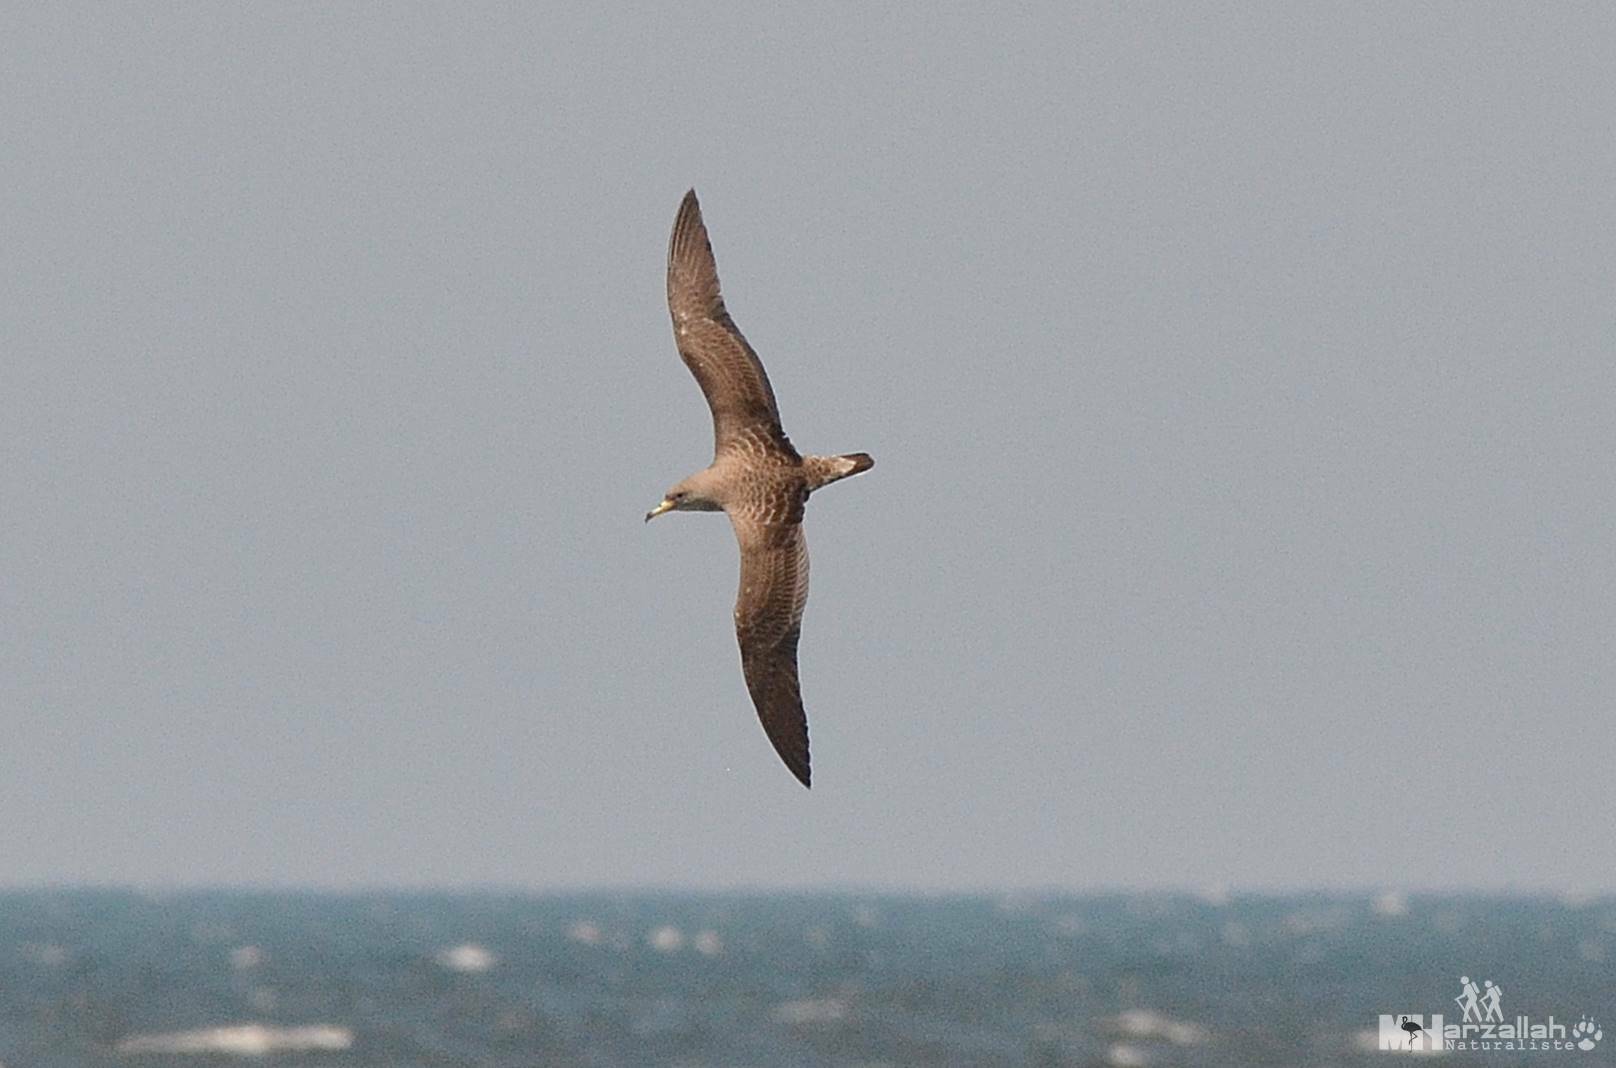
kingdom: Animalia
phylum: Chordata
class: Aves
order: Procellariiformes
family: Procellariidae
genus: Calonectris
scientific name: Calonectris diomedea
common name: Cory's shearwater
